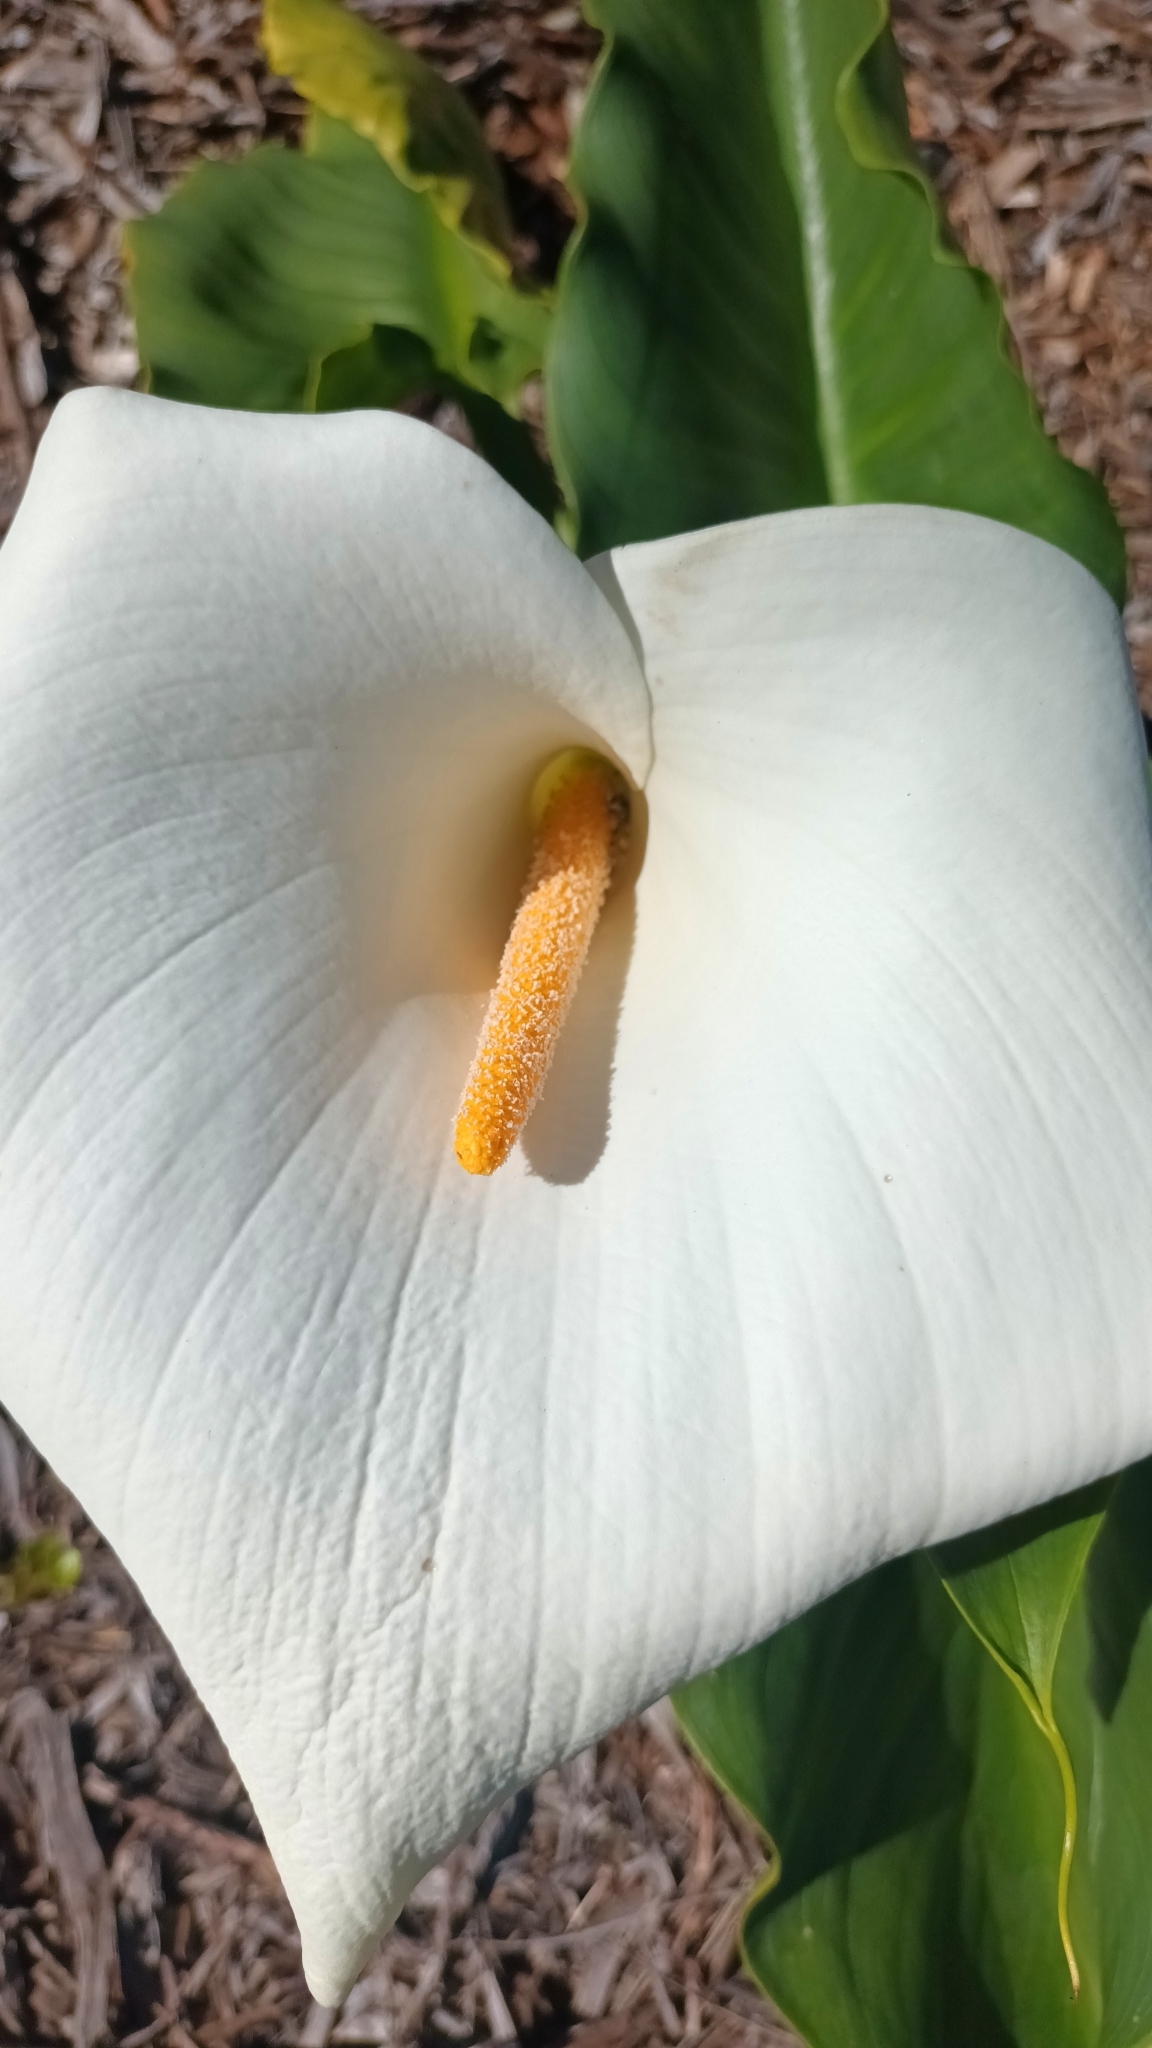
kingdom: Plantae
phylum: Tracheophyta
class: Liliopsida
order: Alismatales
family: Araceae
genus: Zantedeschia
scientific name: Zantedeschia aethiopica
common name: Altar-lily
